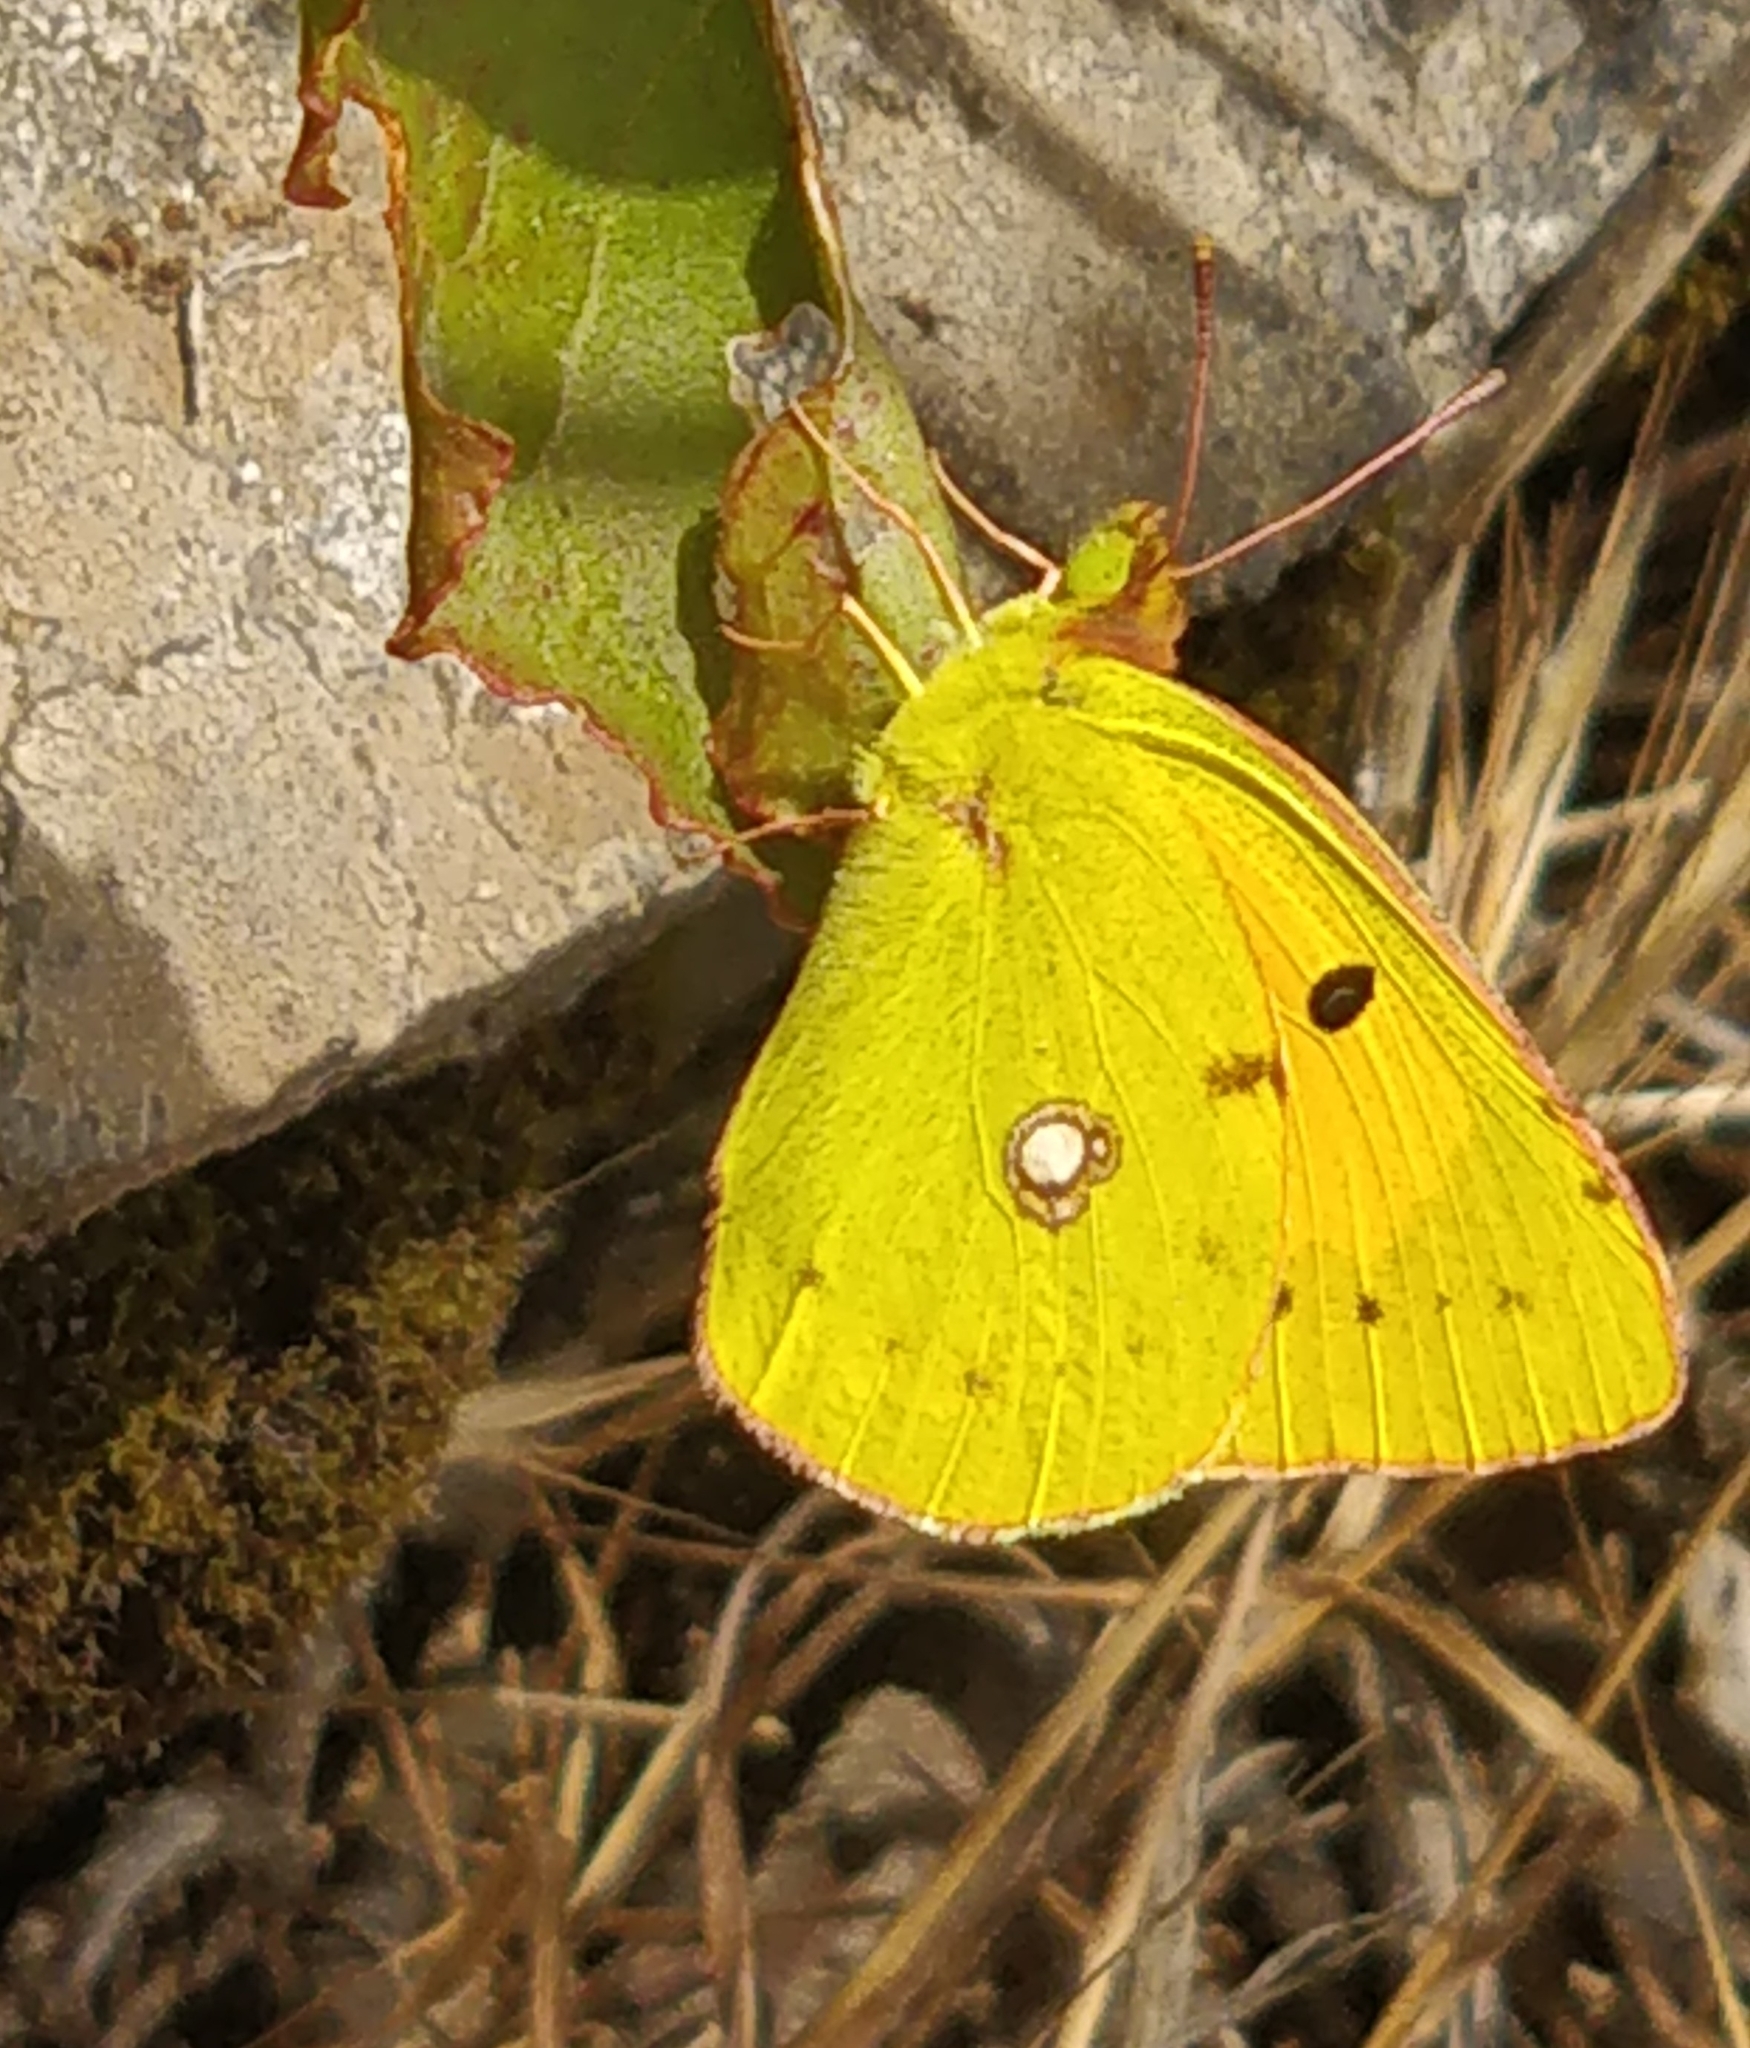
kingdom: Animalia
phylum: Arthropoda
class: Insecta
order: Lepidoptera
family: Pieridae
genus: Colias
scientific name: Colias croceus
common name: Clouded yellow
